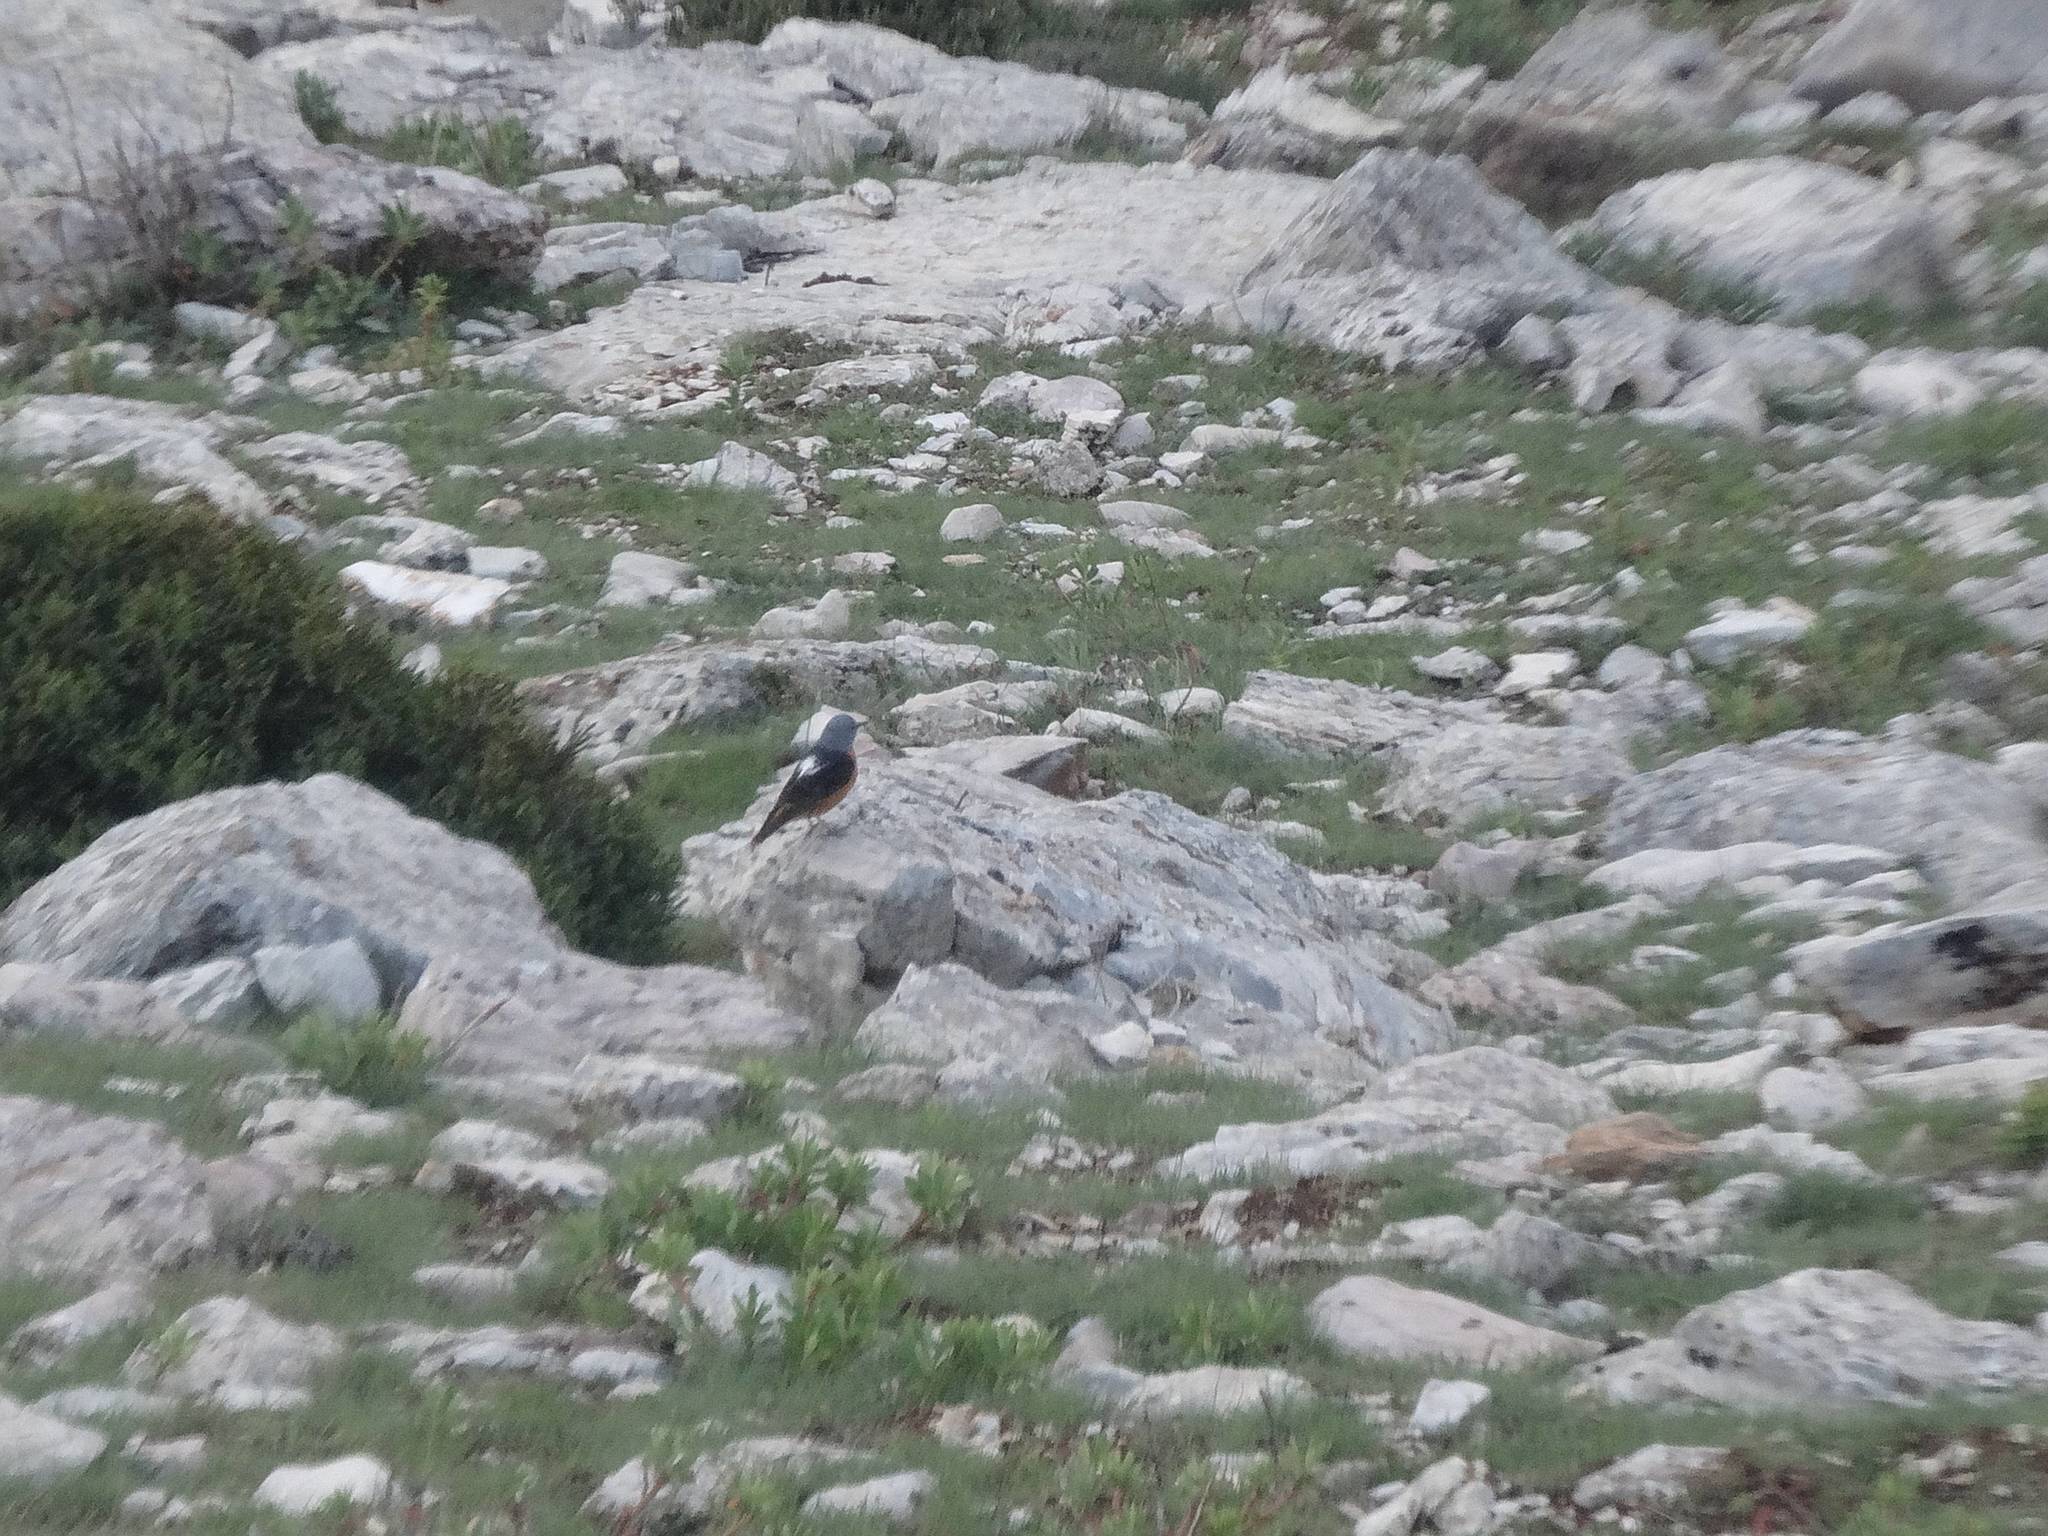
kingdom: Animalia
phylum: Chordata
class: Aves
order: Passeriformes
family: Muscicapidae
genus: Monticola
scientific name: Monticola saxatilis
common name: Rufous-tailed rock thrush
